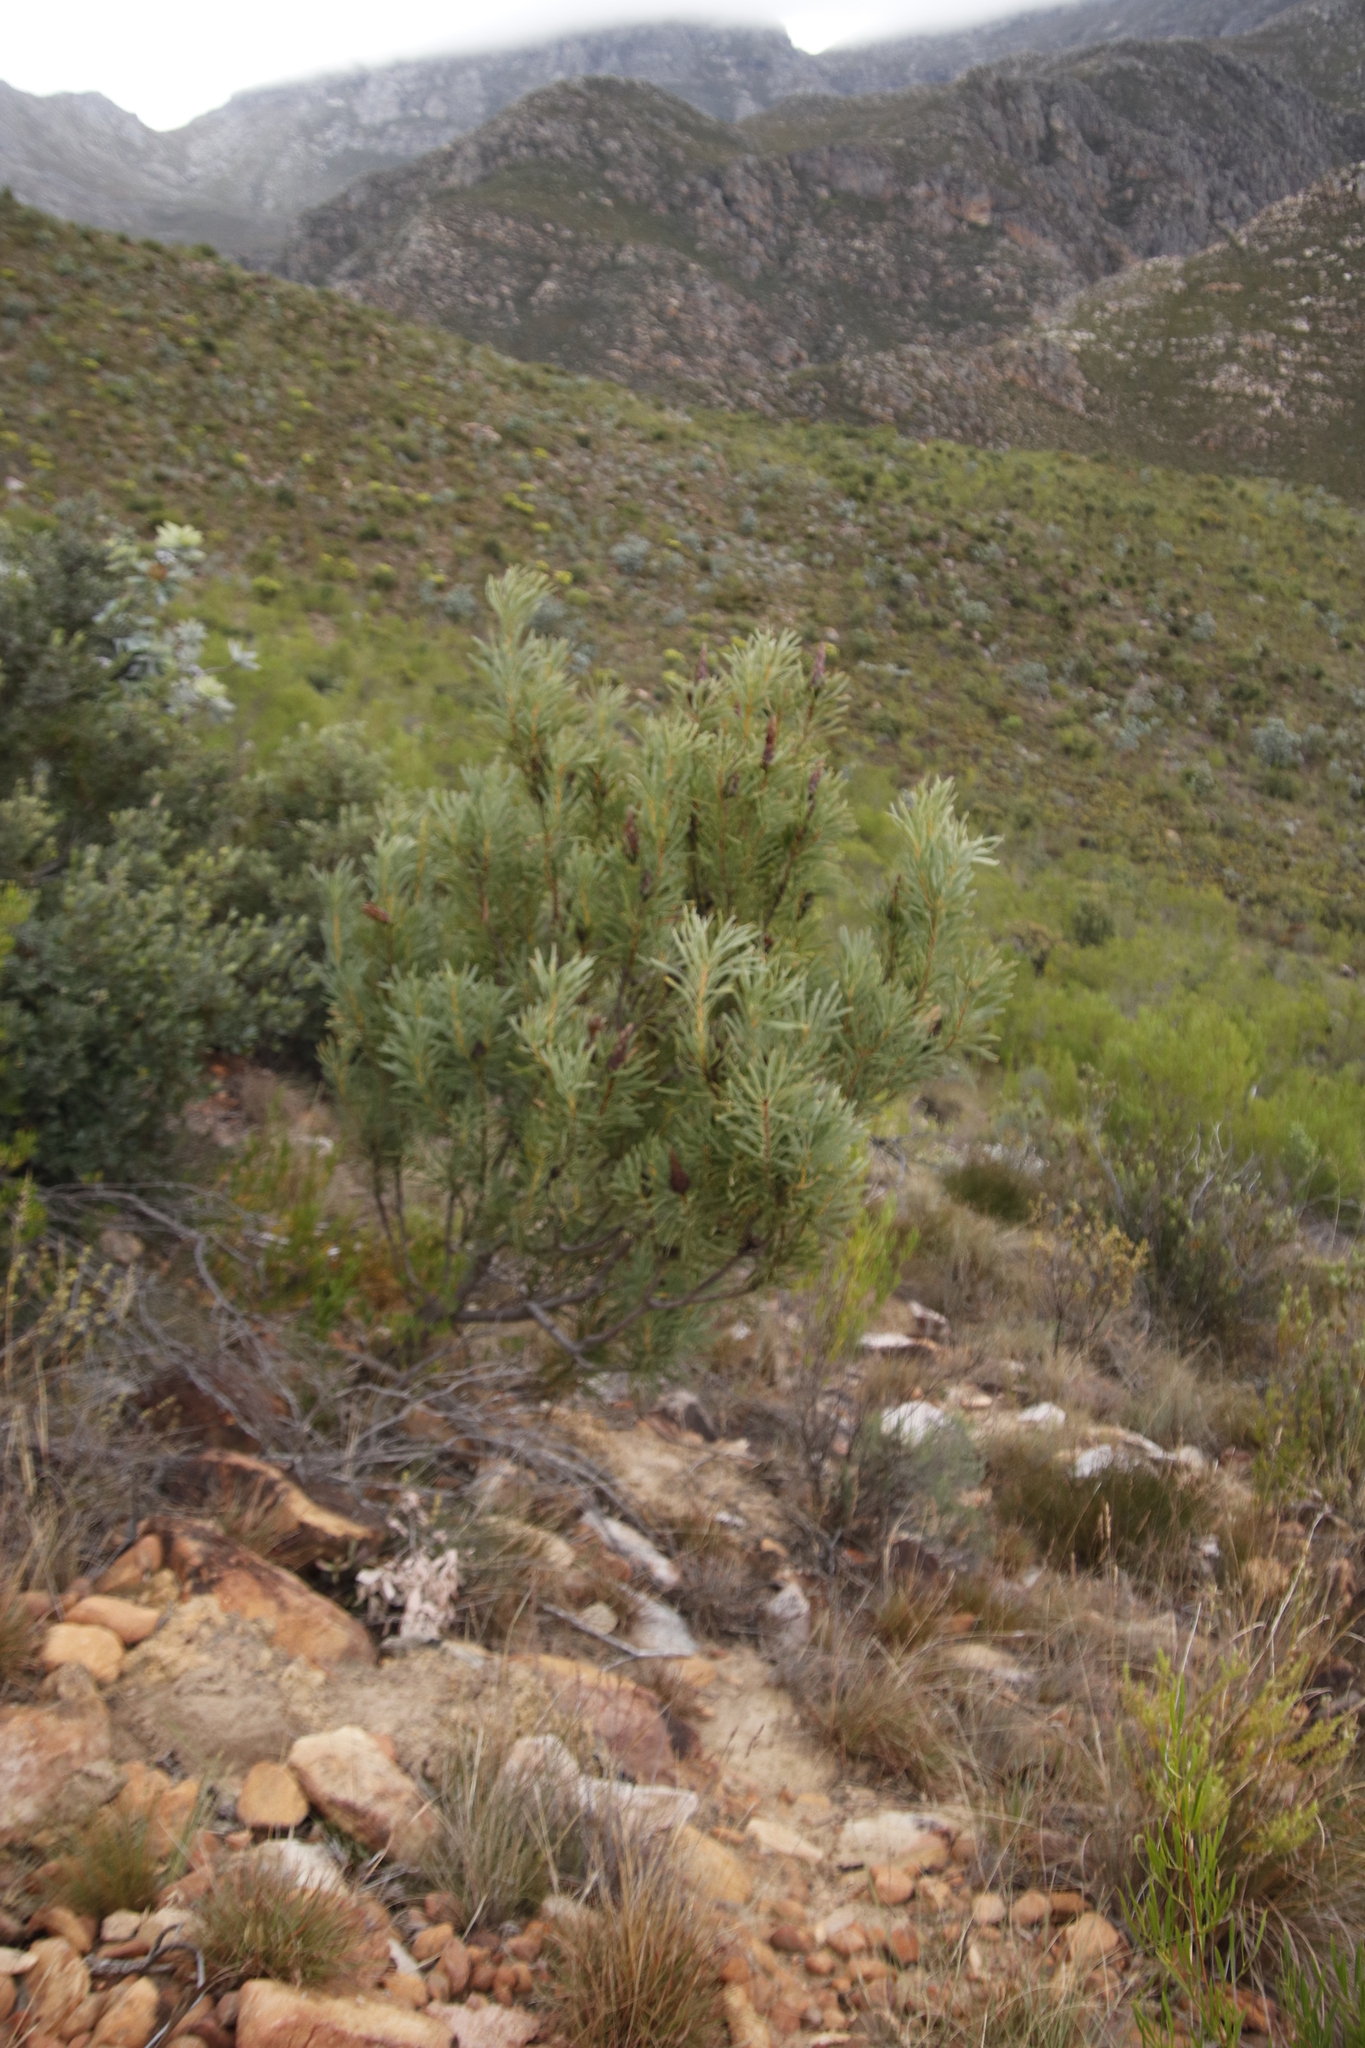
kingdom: Plantae
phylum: Tracheophyta
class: Magnoliopsida
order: Proteales
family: Proteaceae
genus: Protea
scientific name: Protea repens
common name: Sugarbush
